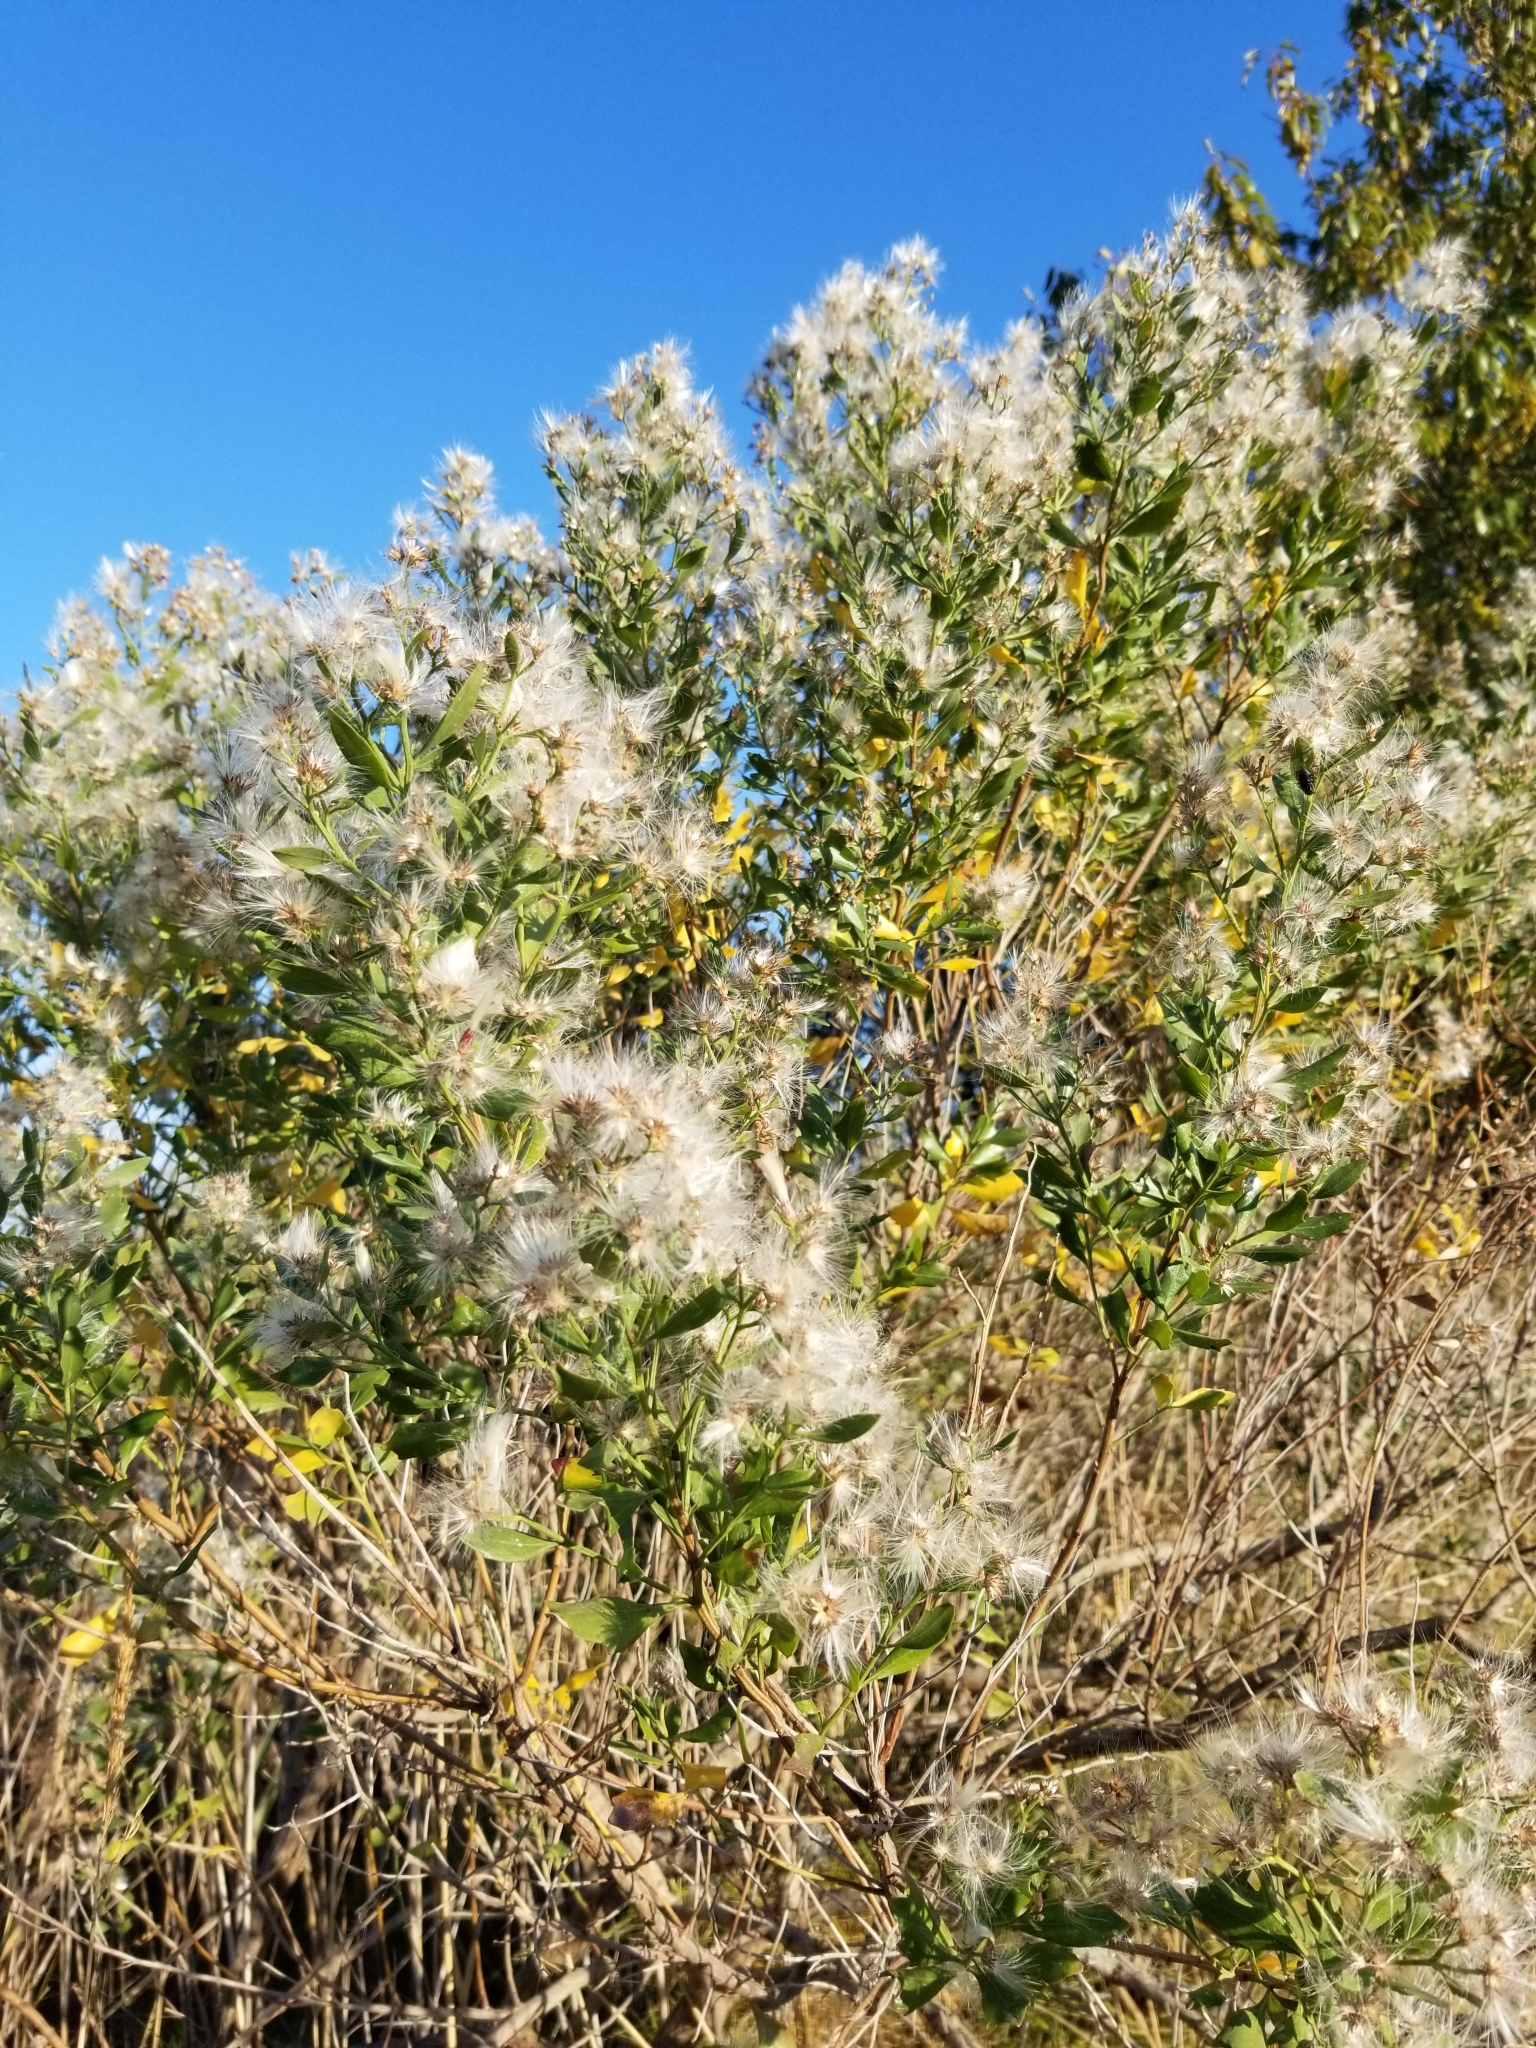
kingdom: Plantae
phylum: Tracheophyta
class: Magnoliopsida
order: Asterales
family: Asteraceae
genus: Baccharis
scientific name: Baccharis halimifolia
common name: Eastern baccharis
